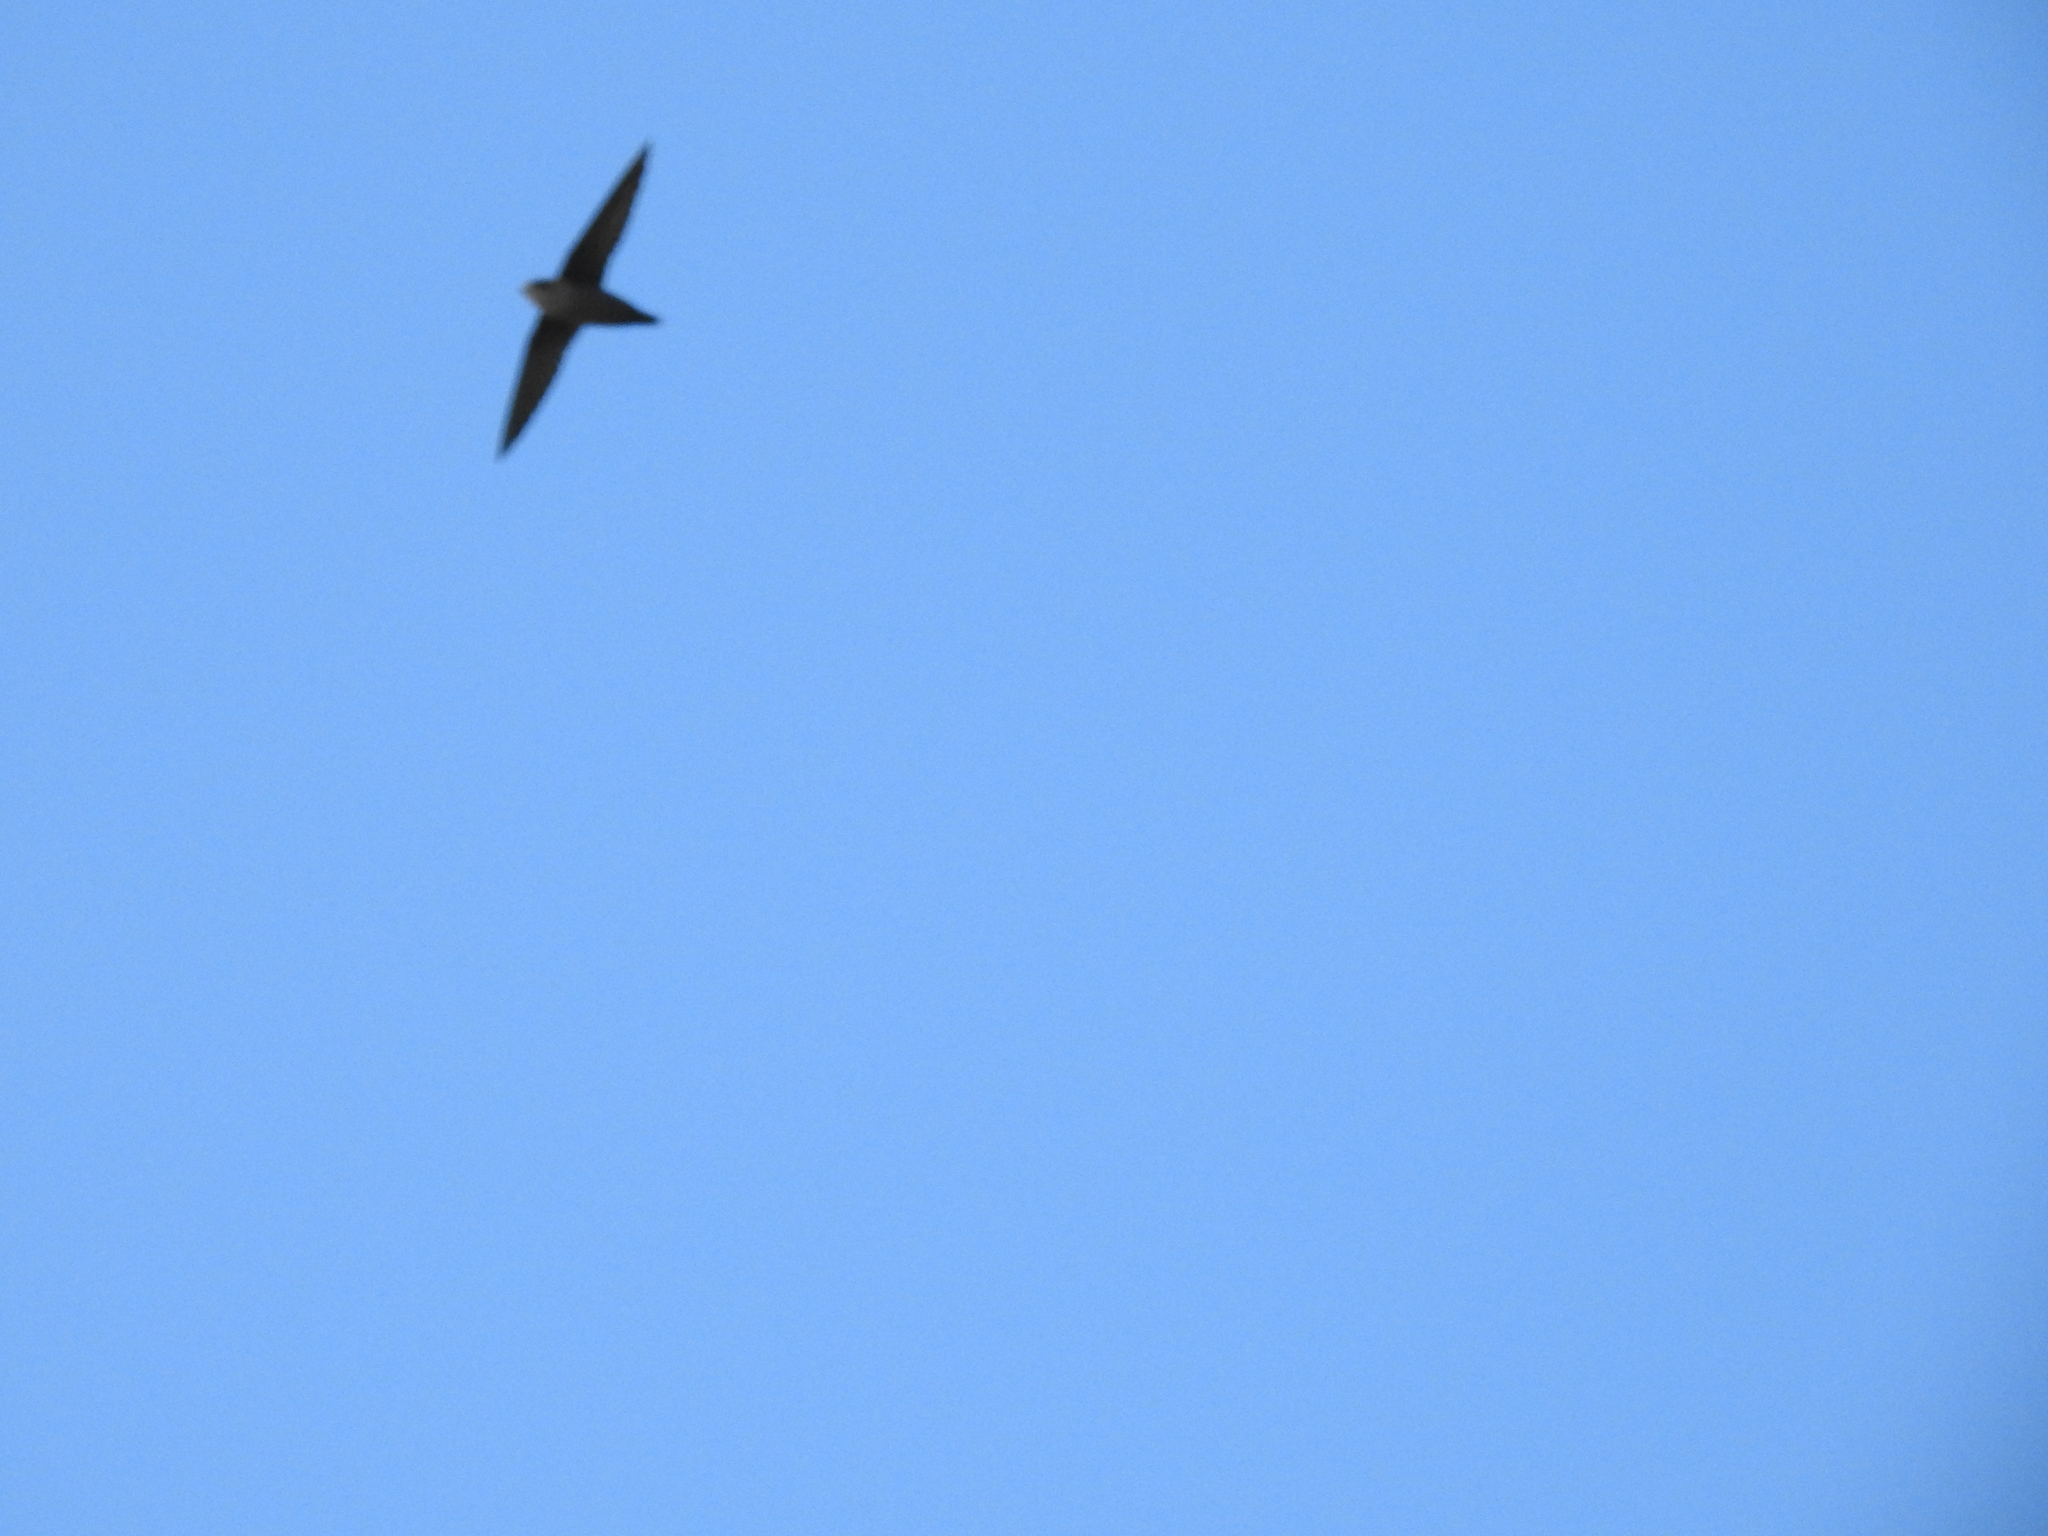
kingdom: Animalia
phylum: Chordata
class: Aves
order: Apodiformes
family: Apodidae
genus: Chaetura
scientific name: Chaetura vauxi
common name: Vaux's swift
